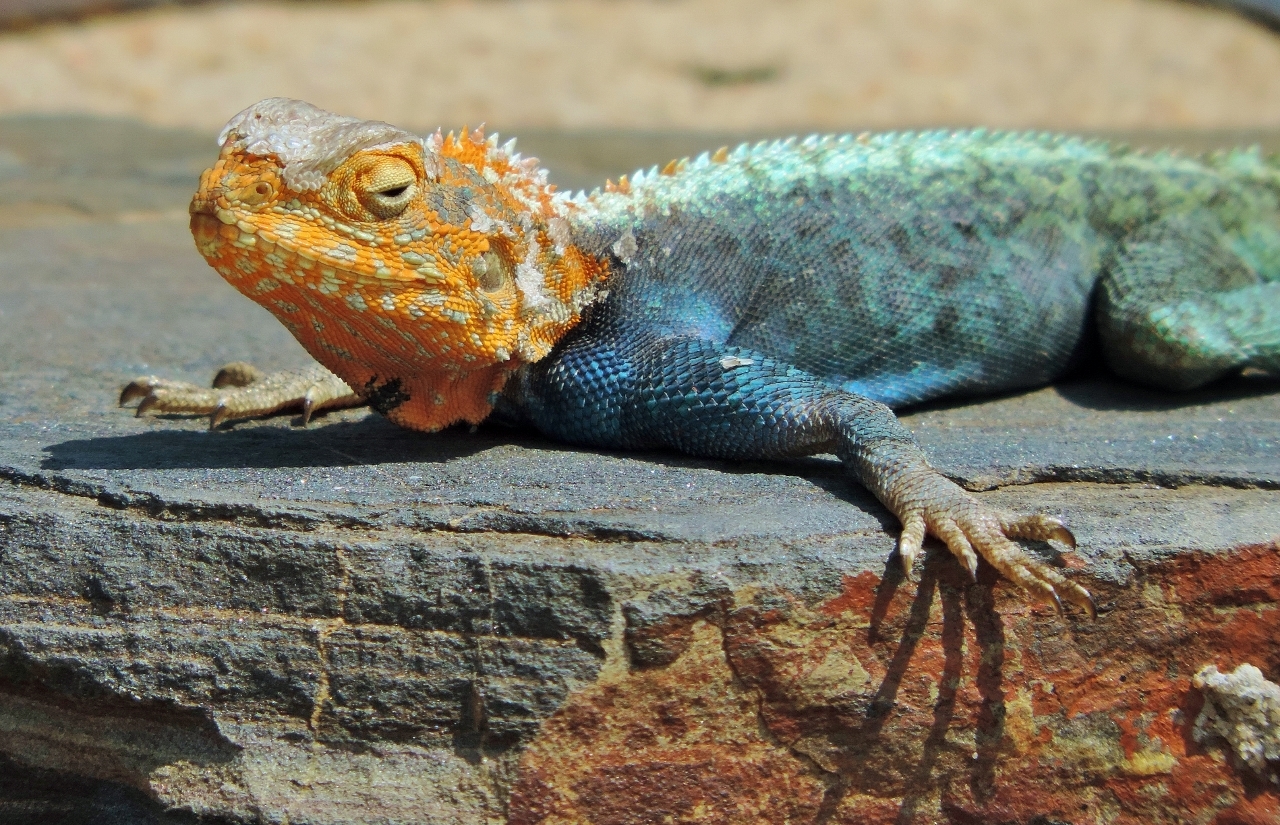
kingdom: Animalia
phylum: Chordata
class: Squamata
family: Agamidae
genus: Agama
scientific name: Agama kirkii
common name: Kirk's rock agama
